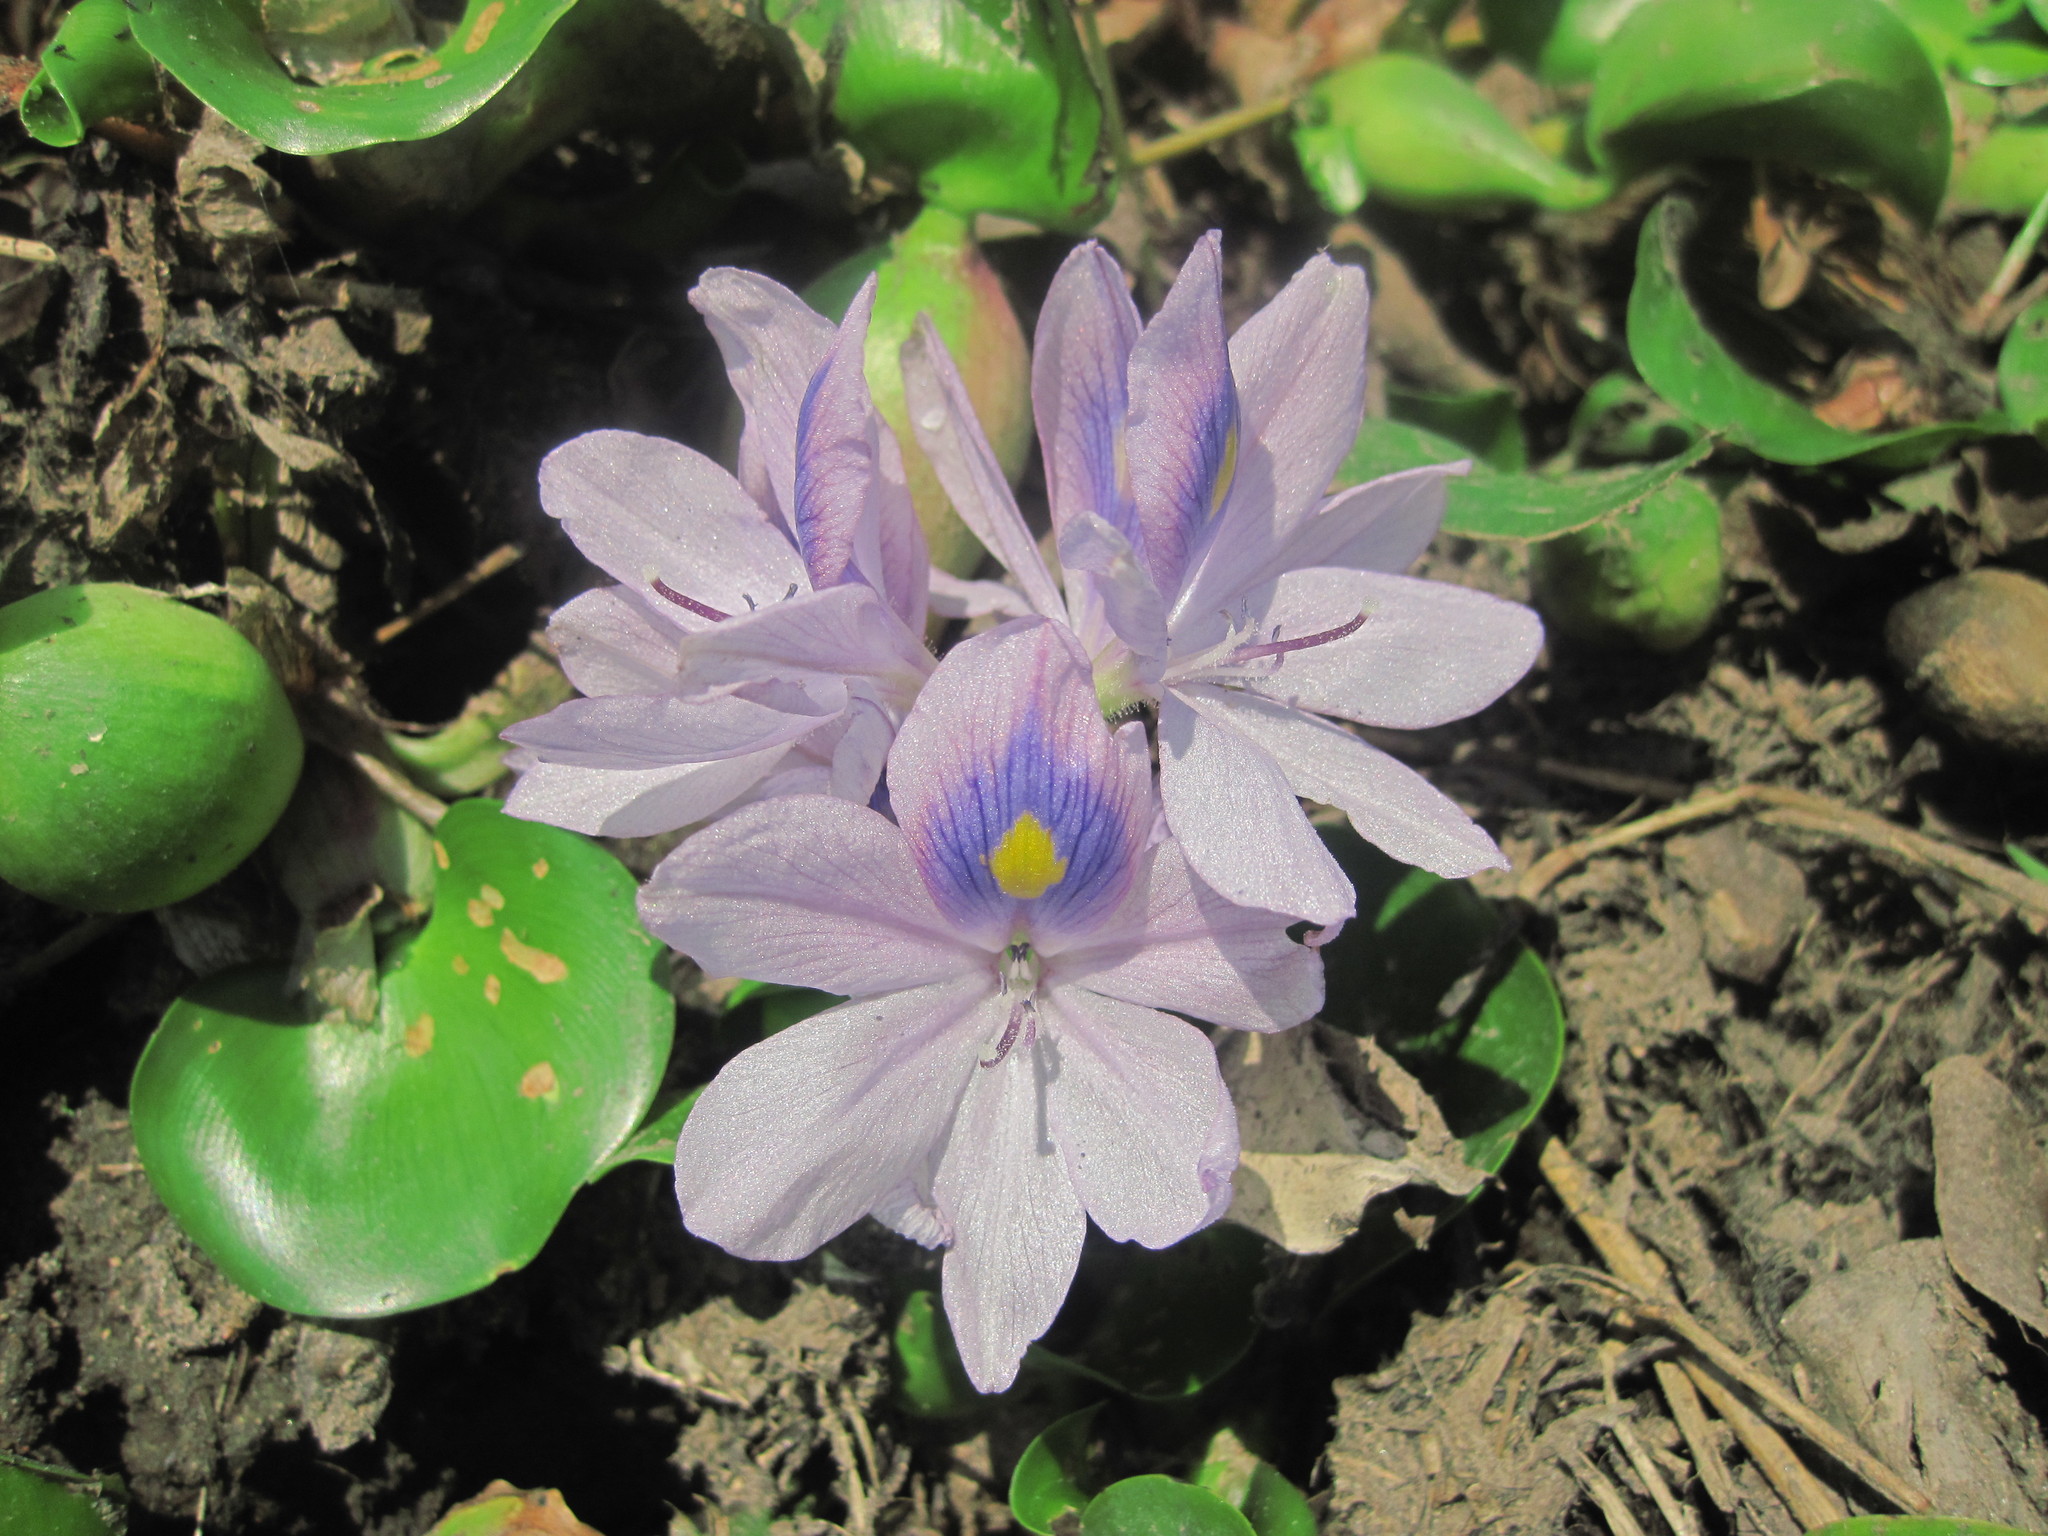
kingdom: Plantae
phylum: Tracheophyta
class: Liliopsida
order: Commelinales
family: Pontederiaceae
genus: Pontederia
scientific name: Pontederia crassipes
